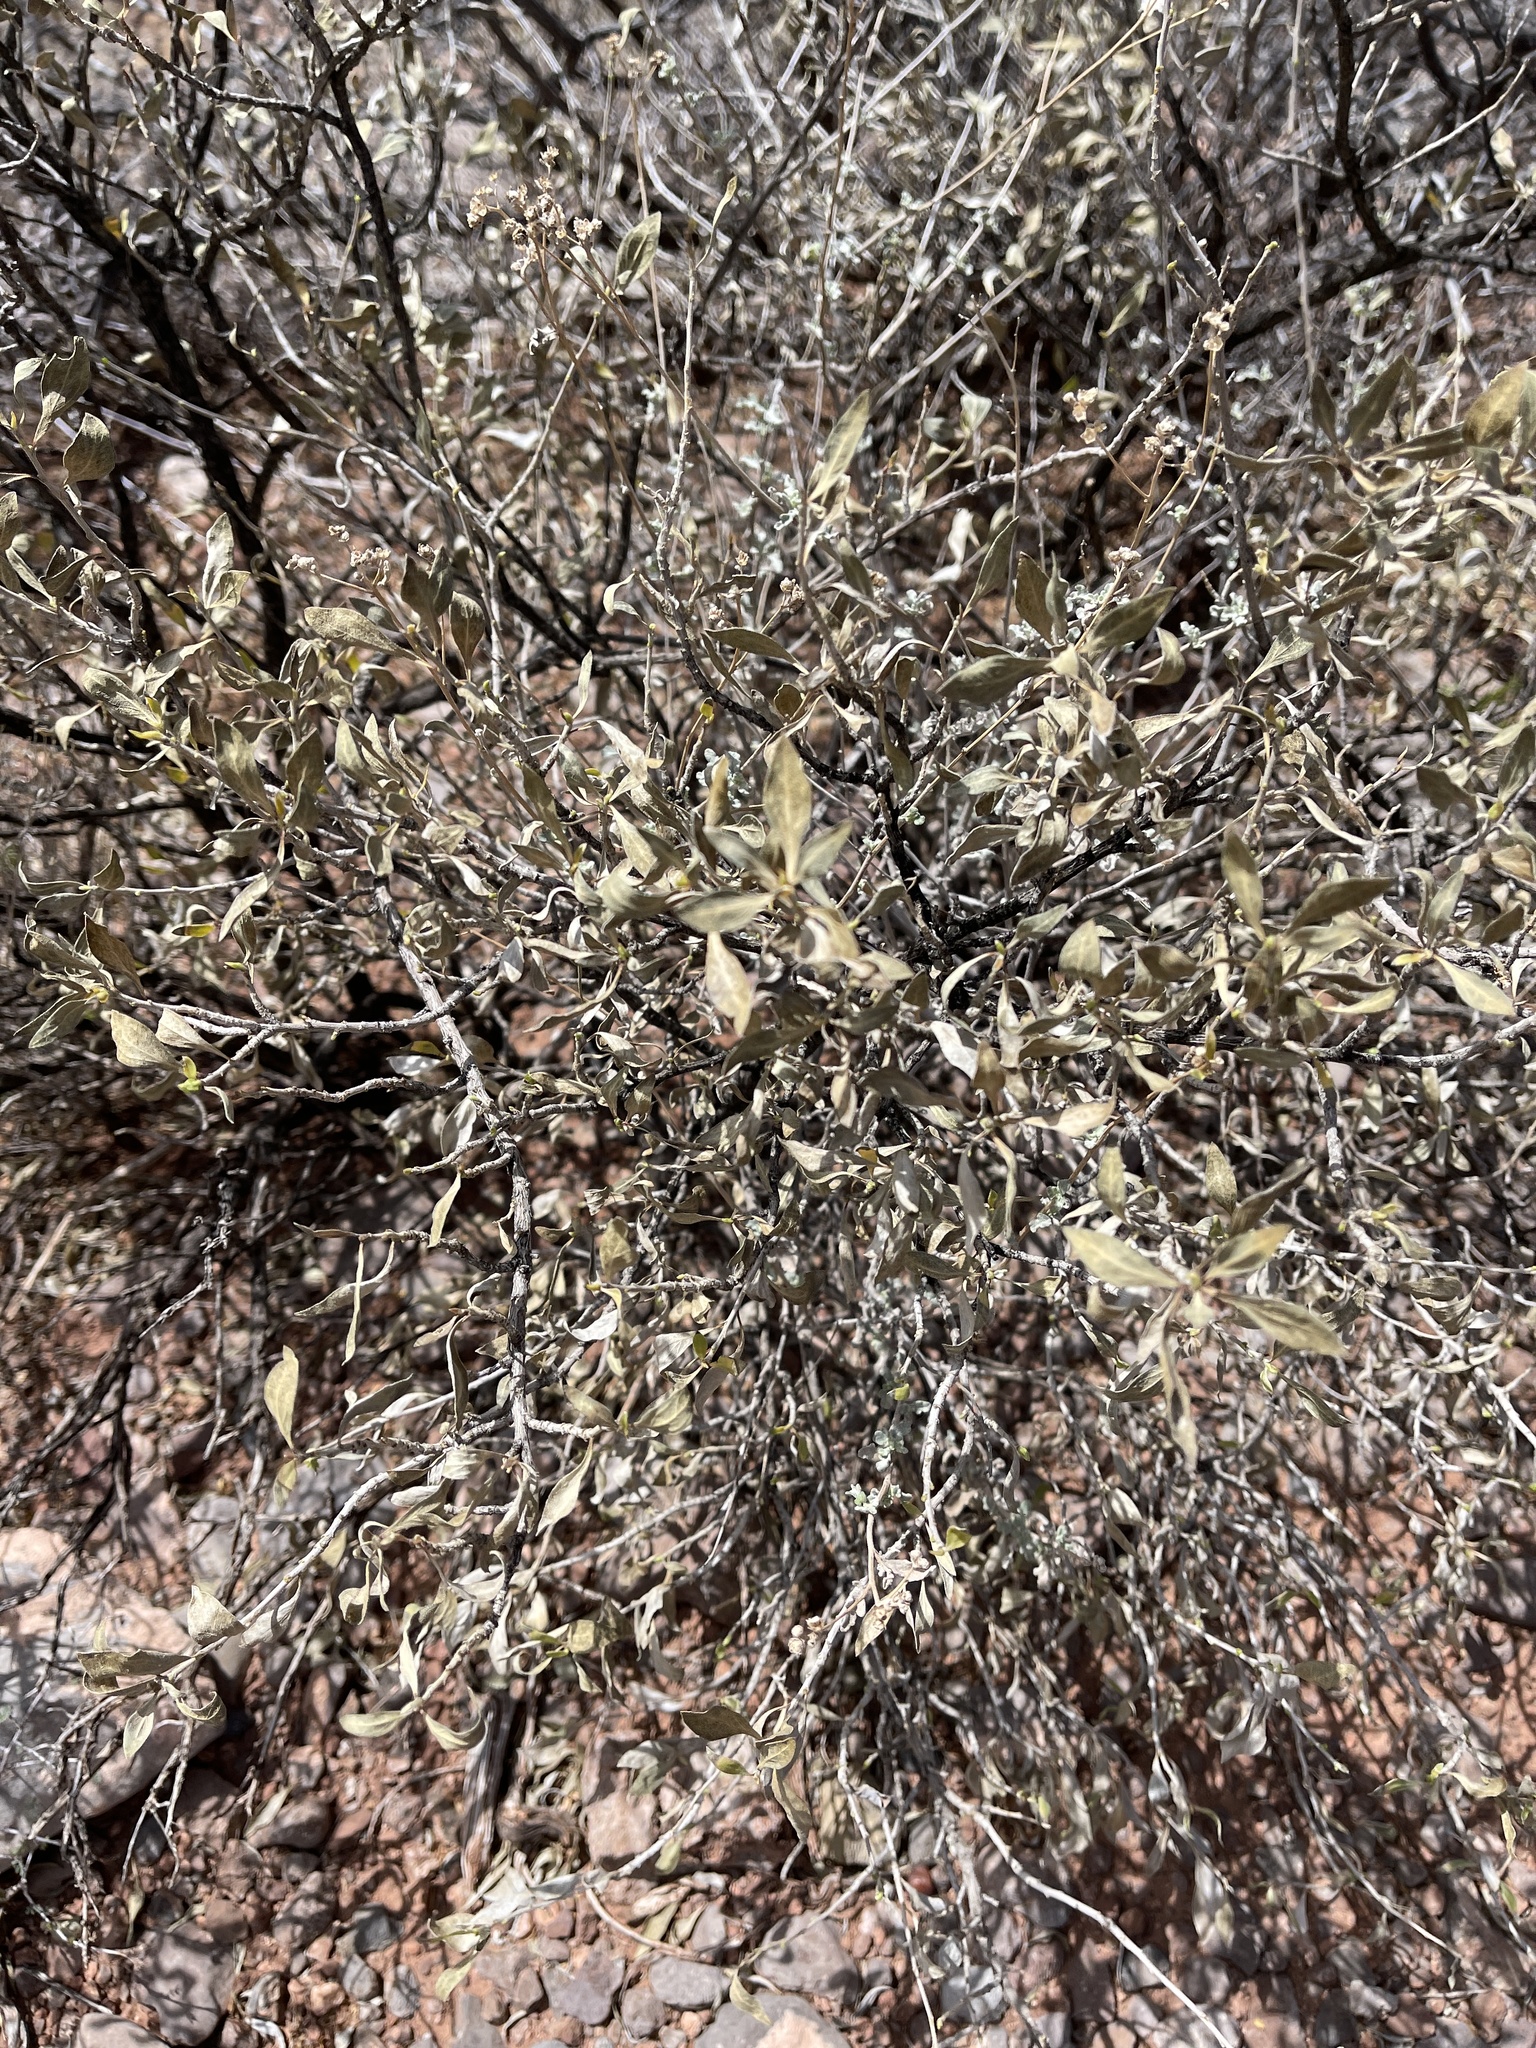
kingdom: Plantae
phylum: Tracheophyta
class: Magnoliopsida
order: Asterales
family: Asteraceae
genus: Flourensia
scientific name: Flourensia cernua
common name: Varnishbush
